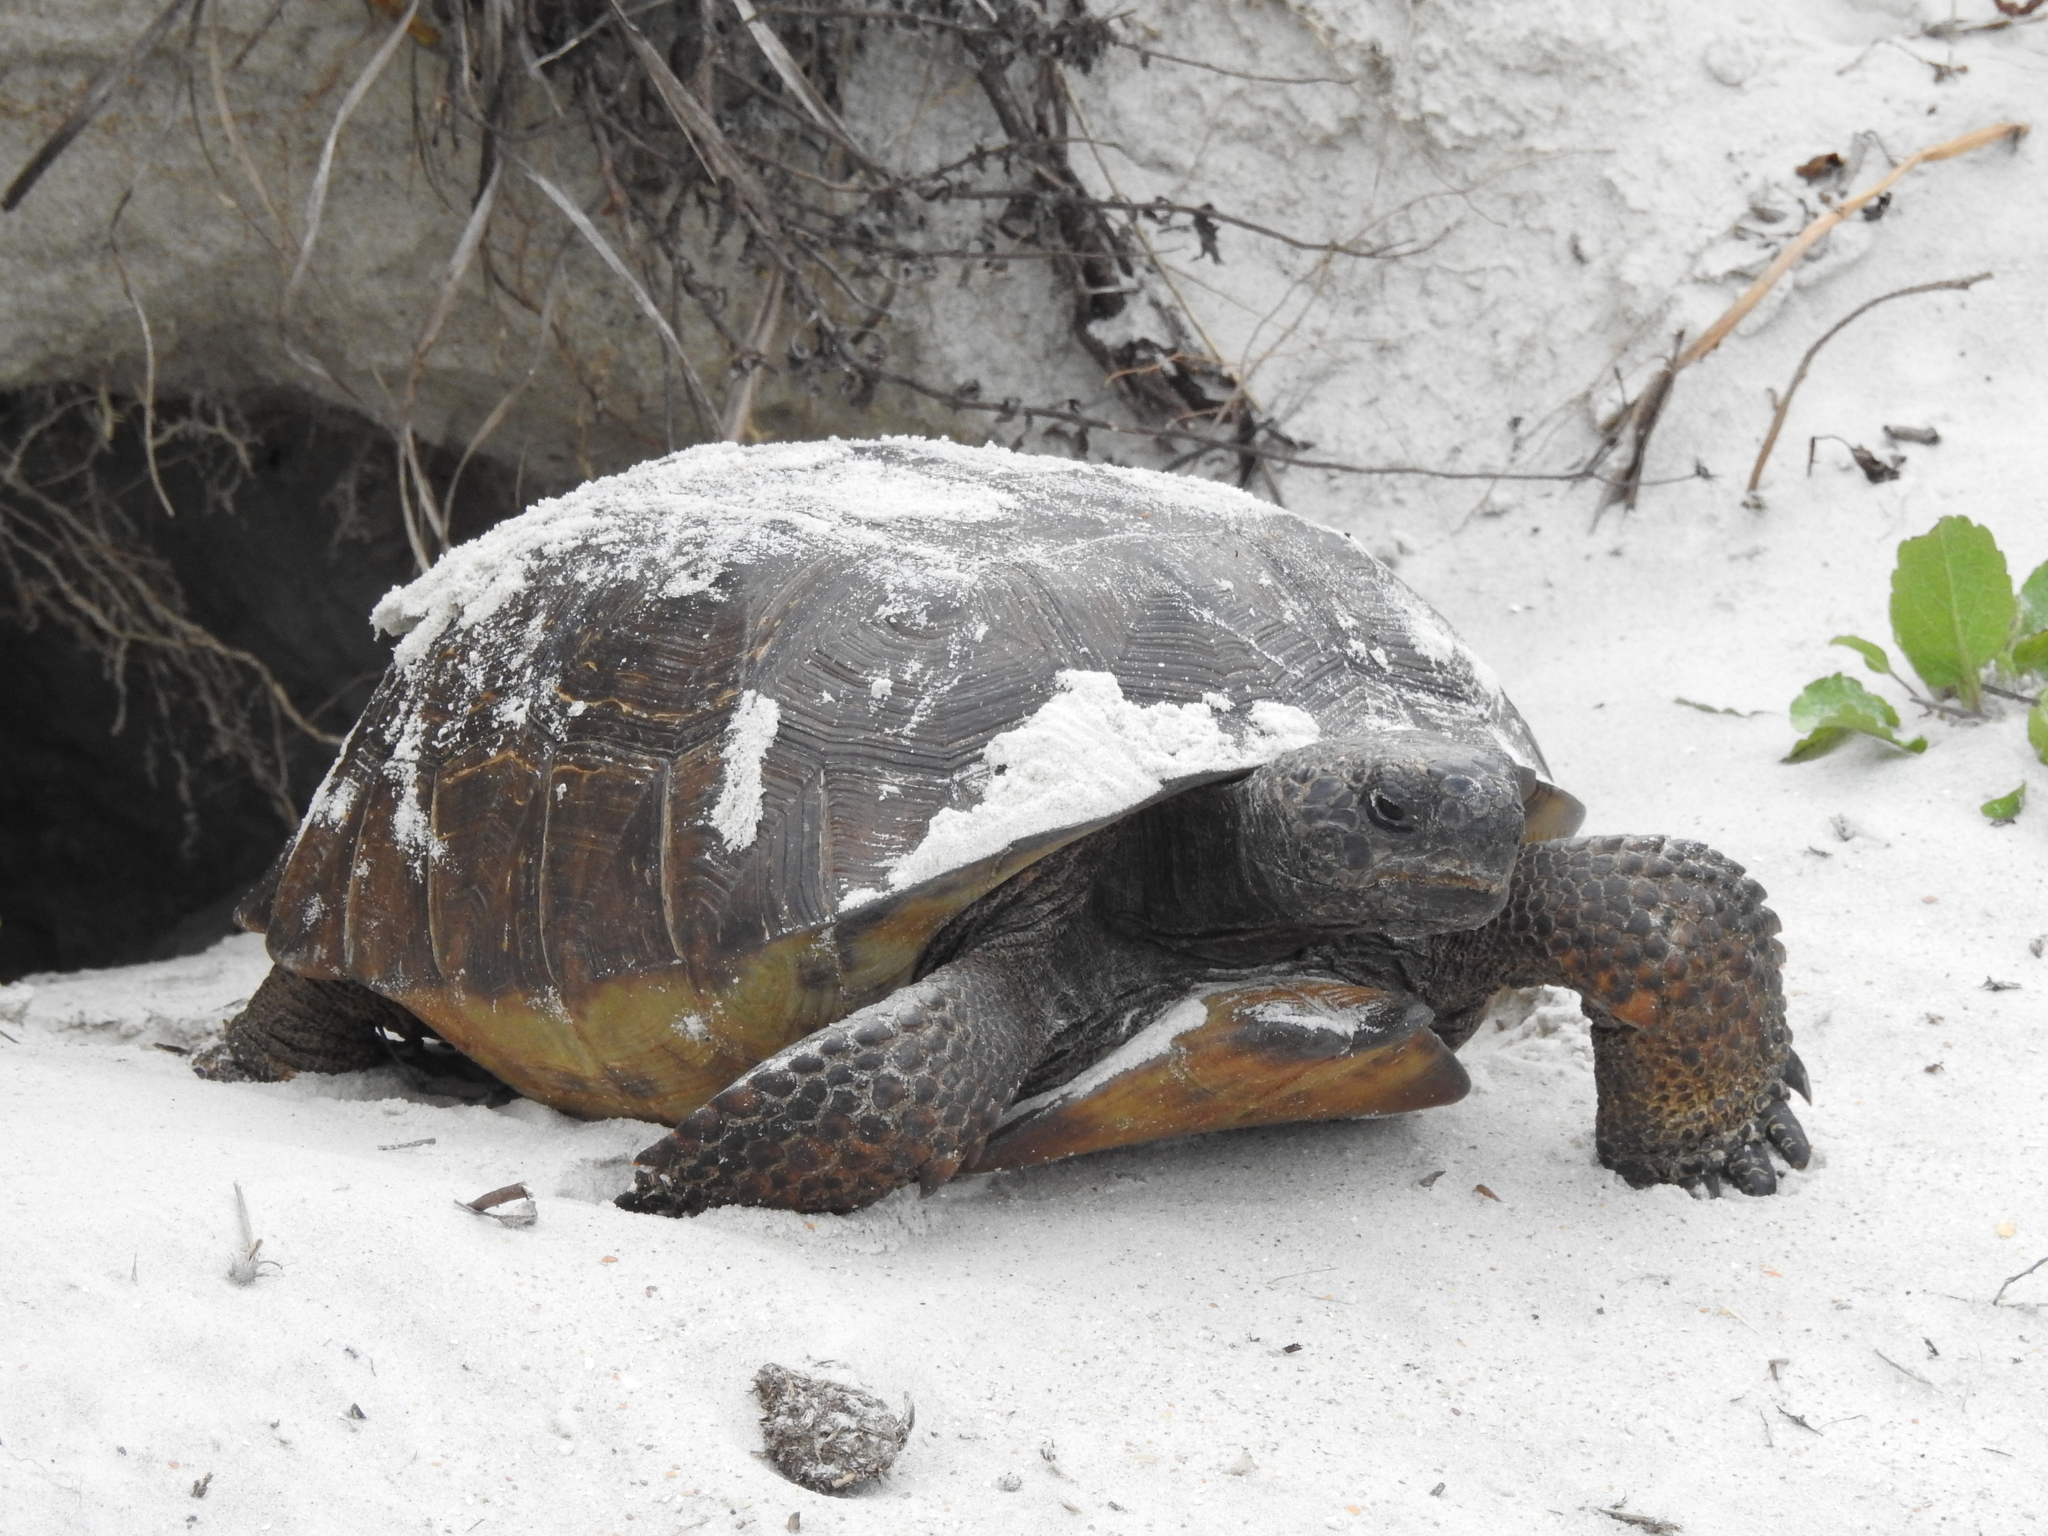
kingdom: Animalia
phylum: Chordata
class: Testudines
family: Testudinidae
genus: Gopherus
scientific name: Gopherus polyphemus
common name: Florida gopher tortoise
